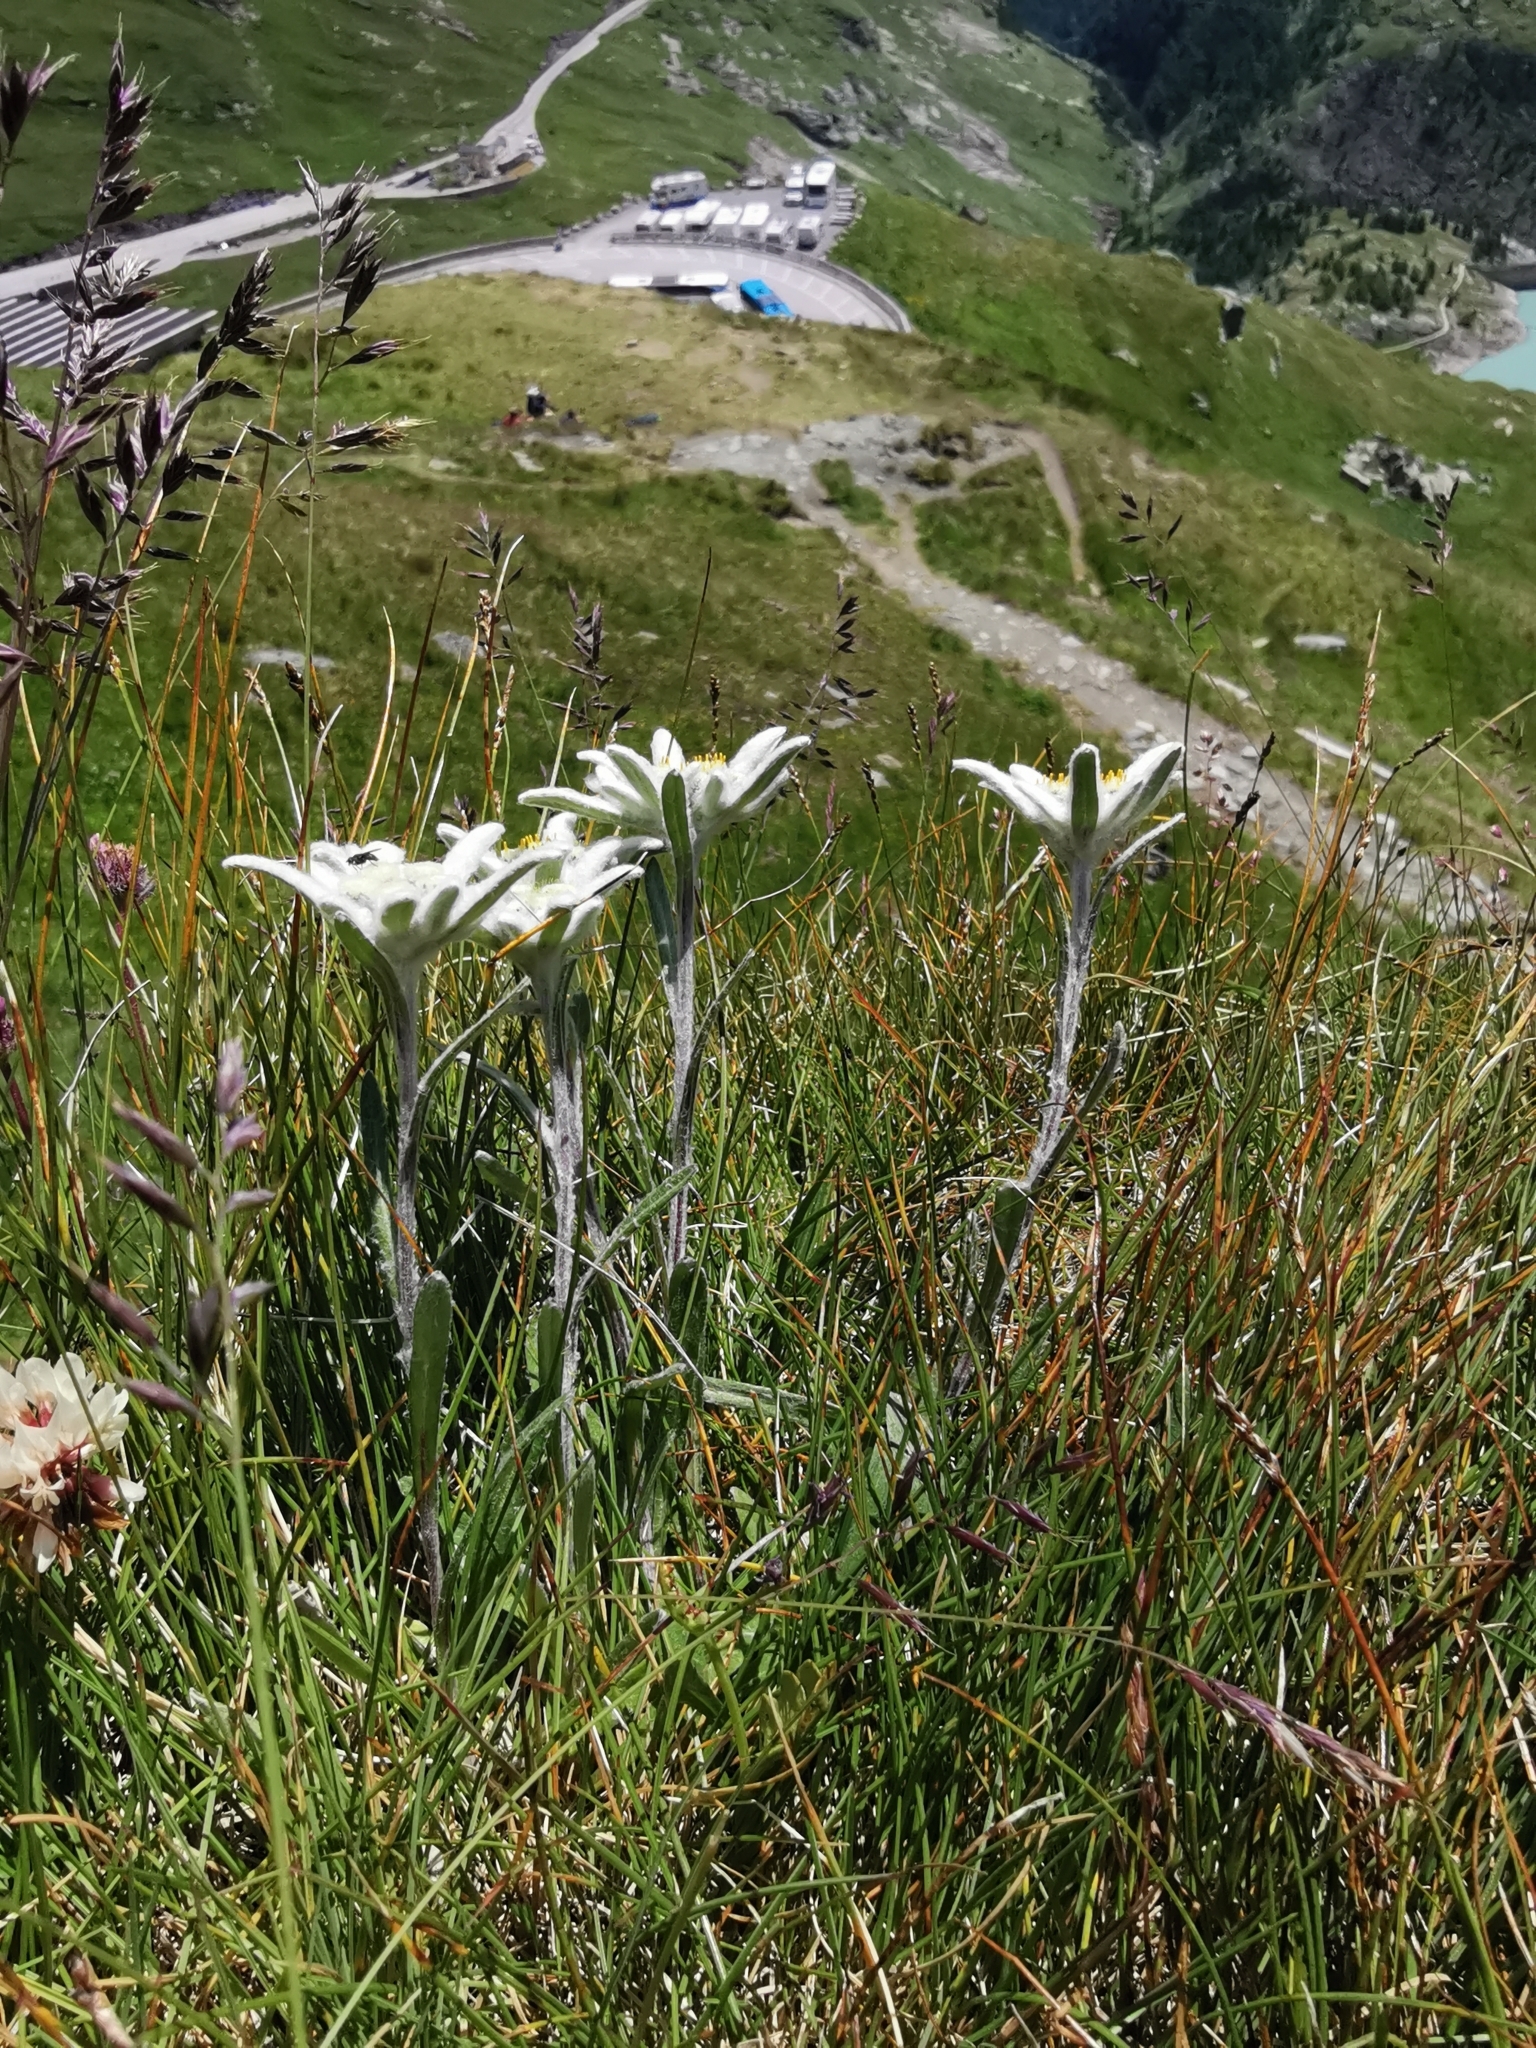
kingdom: Plantae
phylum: Tracheophyta
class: Magnoliopsida
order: Asterales
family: Asteraceae
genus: Leontopodium
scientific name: Leontopodium nivale
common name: Edelweiss
